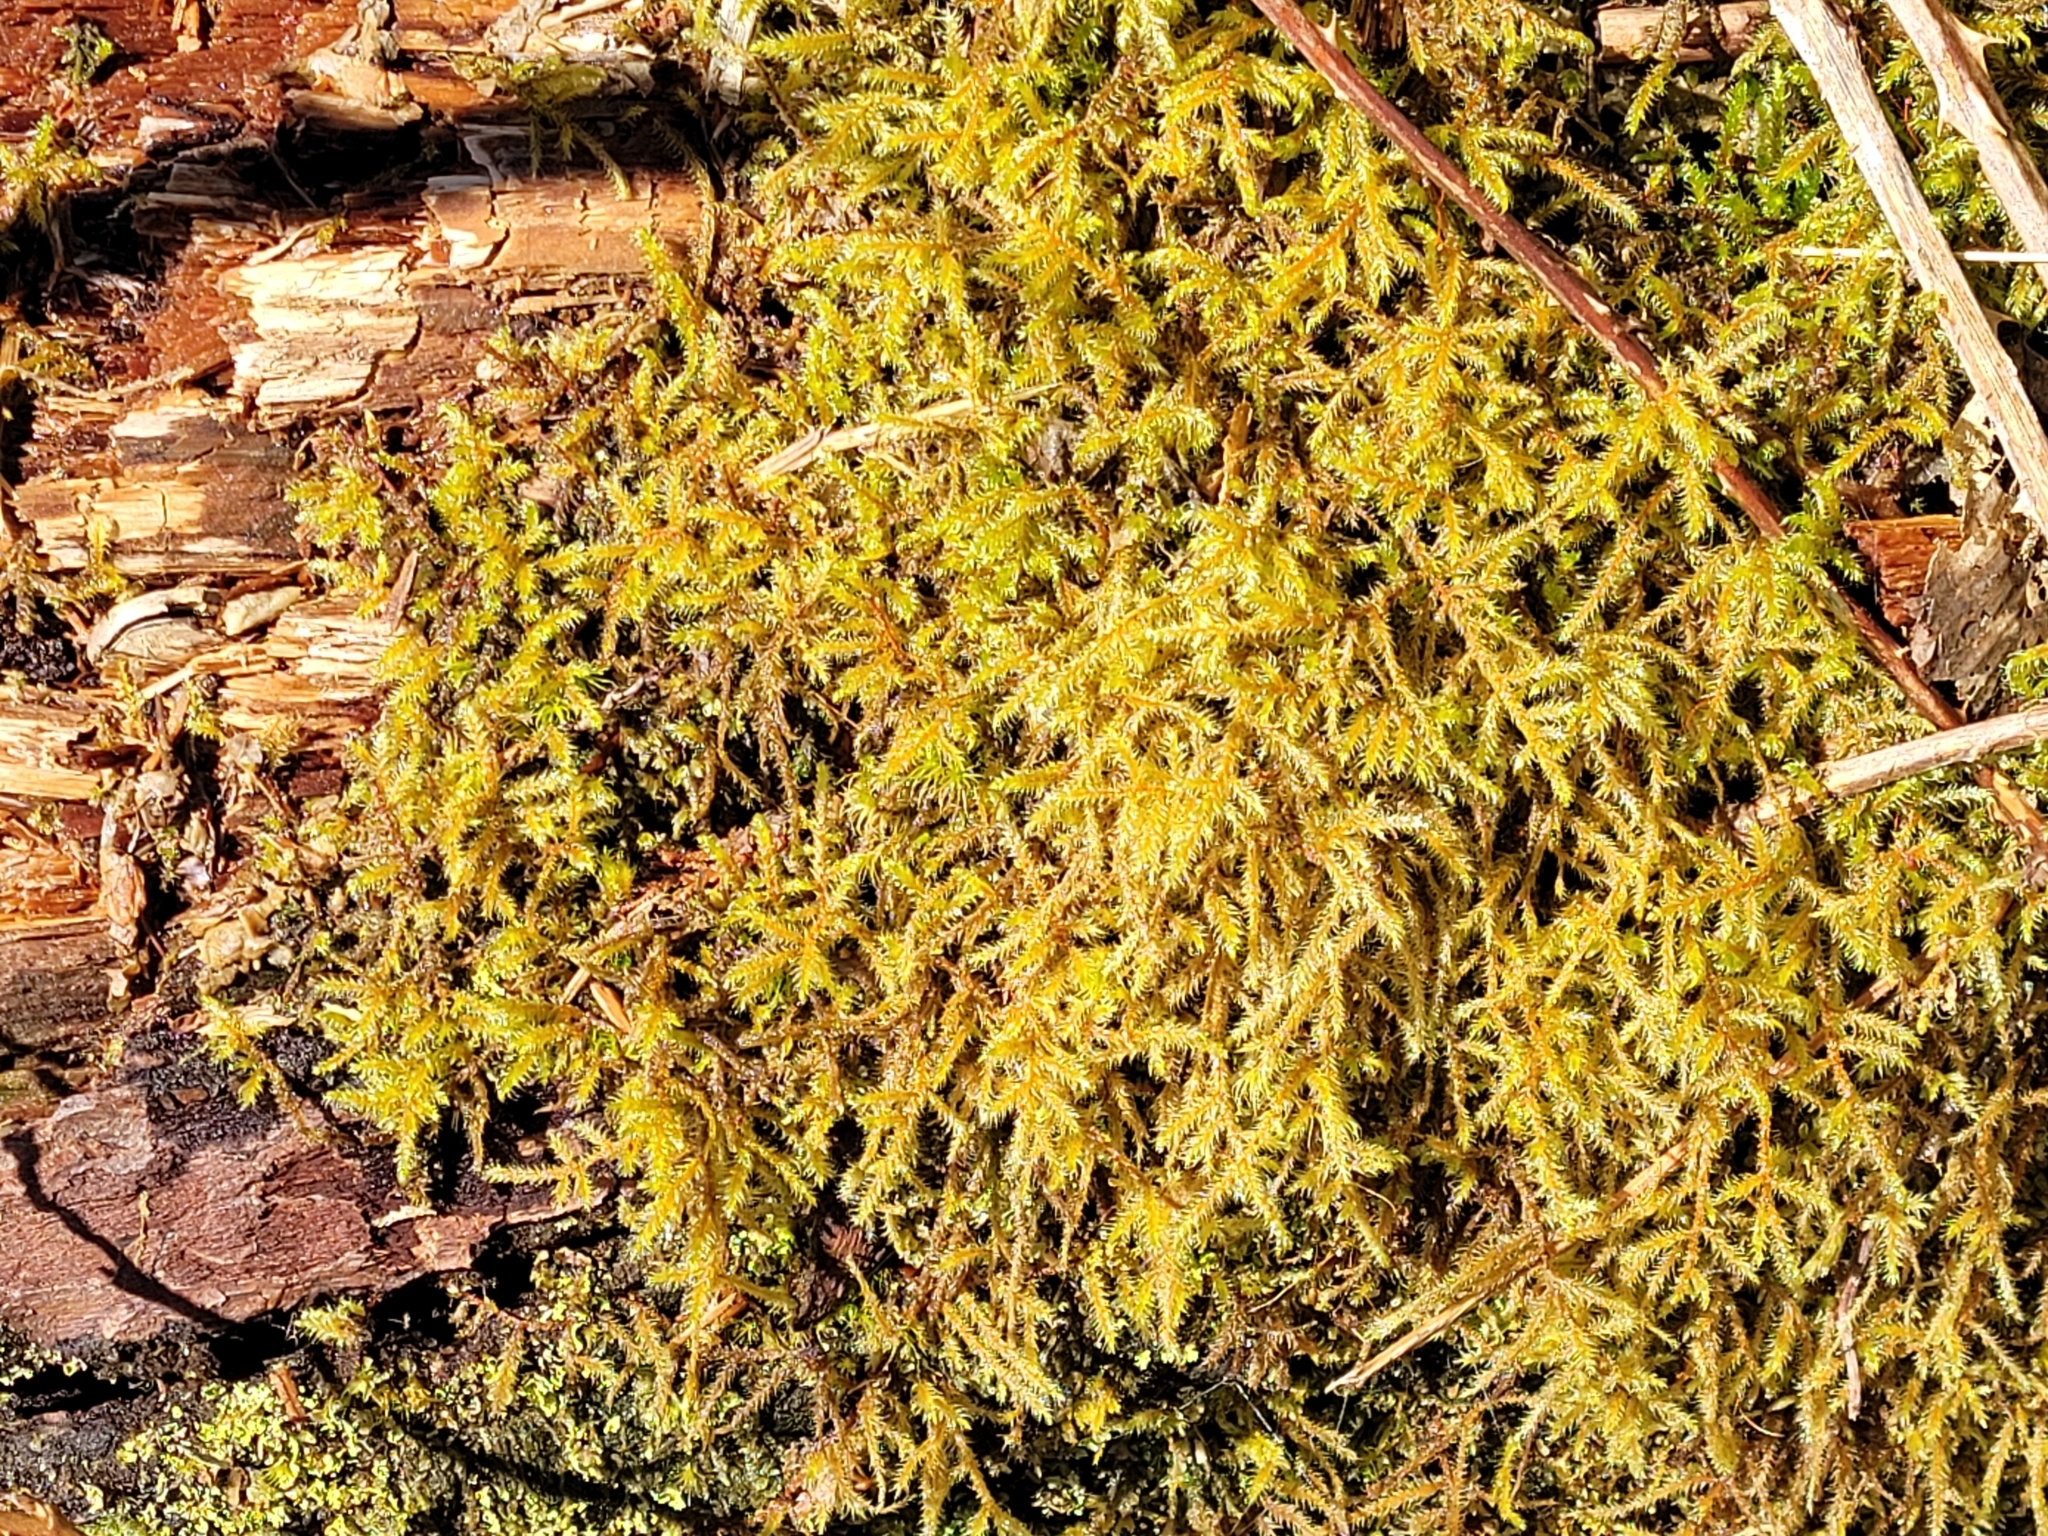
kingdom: Plantae
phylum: Bryophyta
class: Bryopsida
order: Hypnales
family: Hylocomiaceae
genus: Rhytidiadelphus
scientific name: Rhytidiadelphus loreus
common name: Lanky moss
